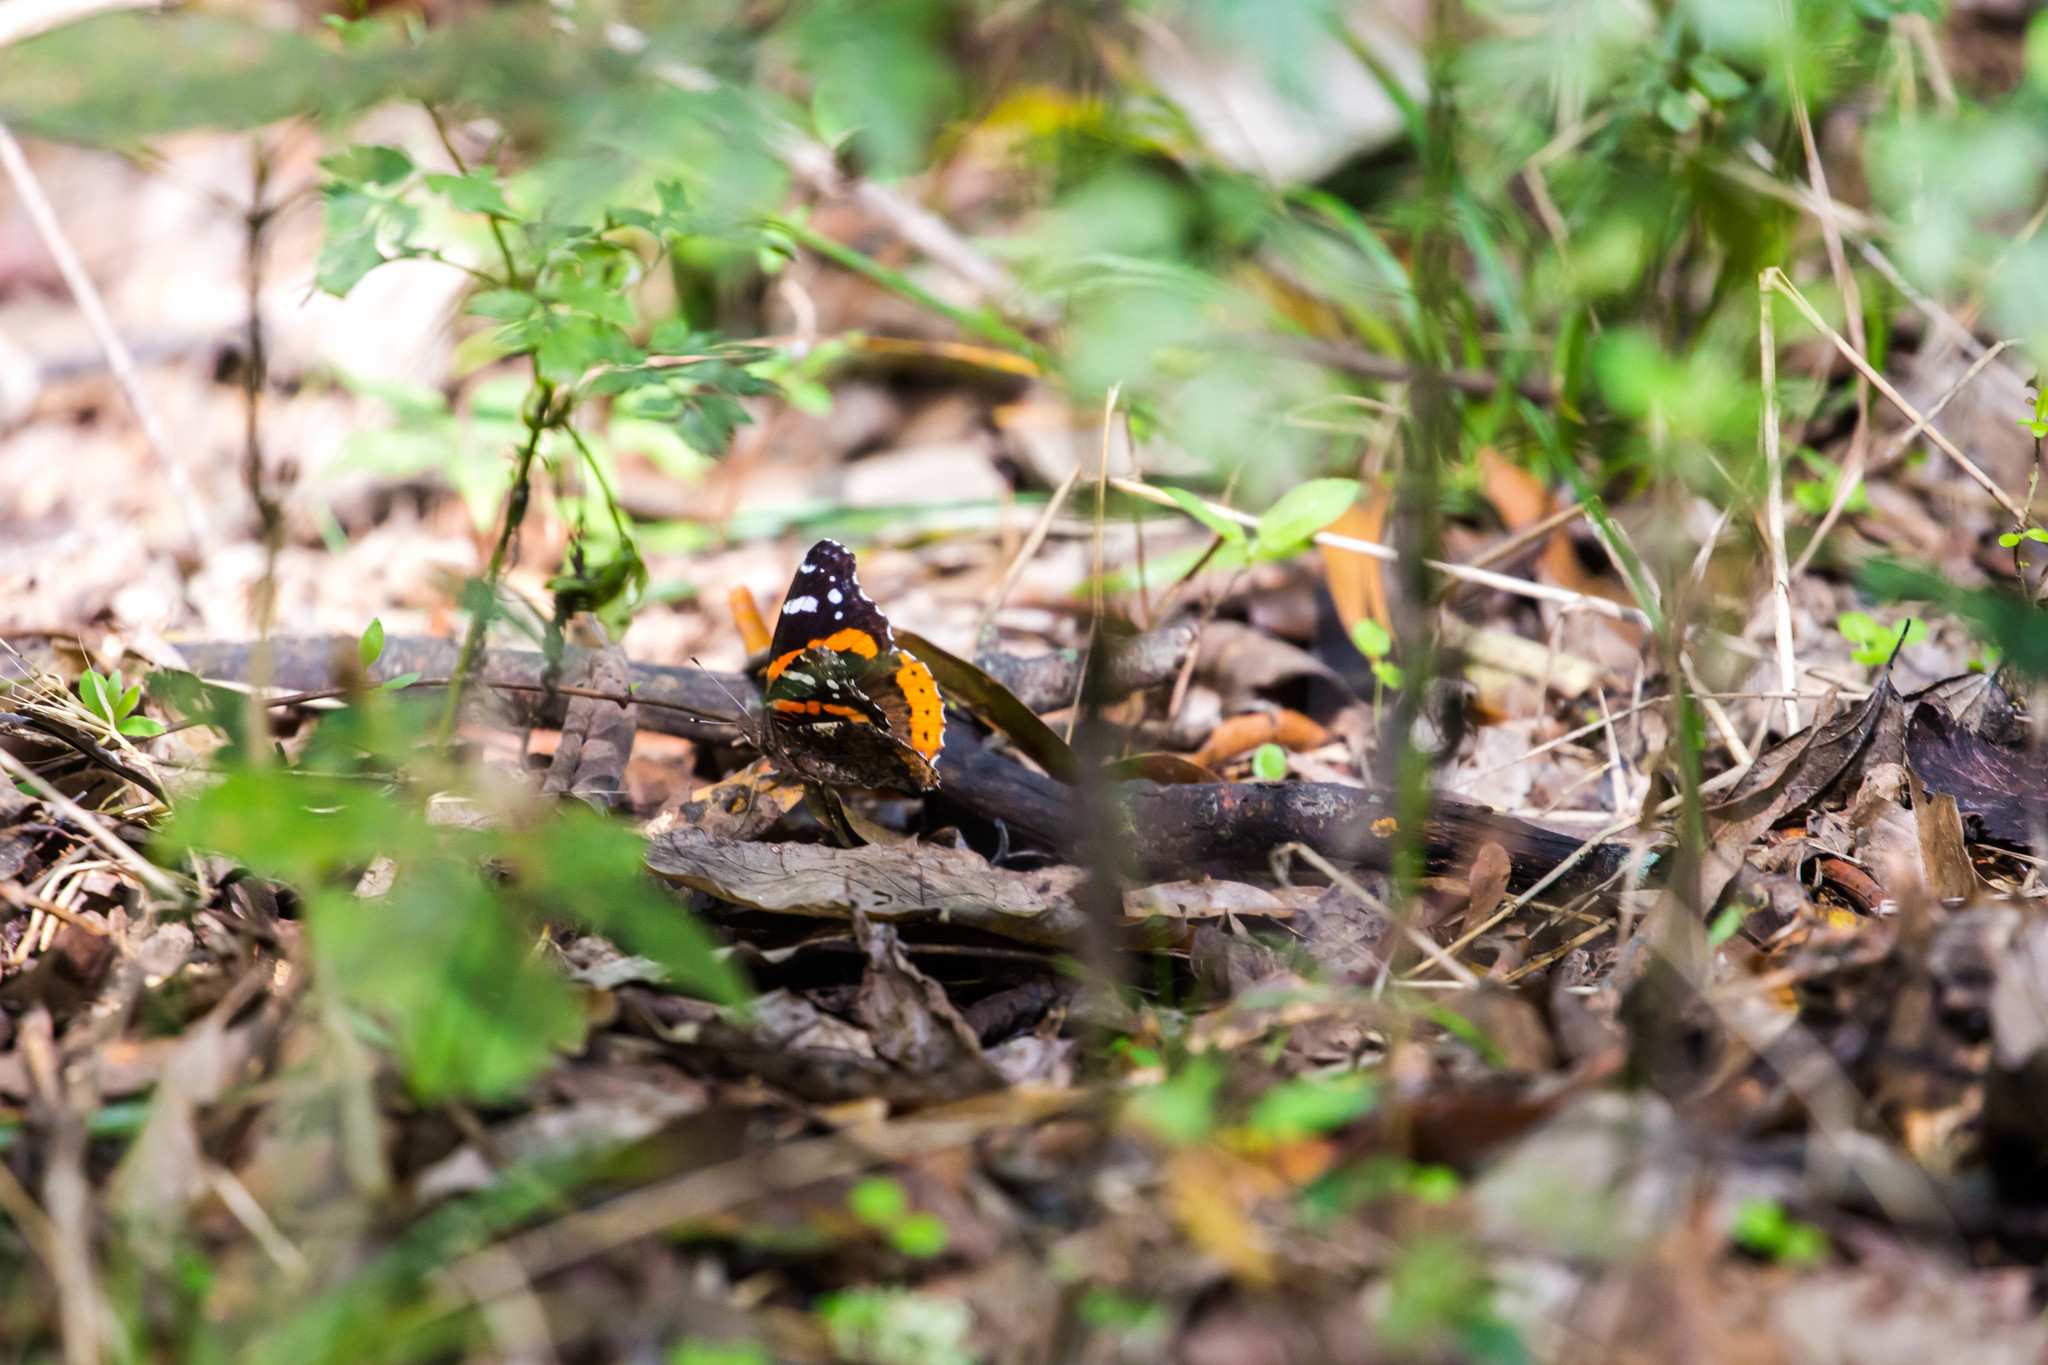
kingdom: Animalia
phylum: Arthropoda
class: Insecta
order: Lepidoptera
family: Nymphalidae
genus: Vanessa
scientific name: Vanessa atalanta
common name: Red admiral
